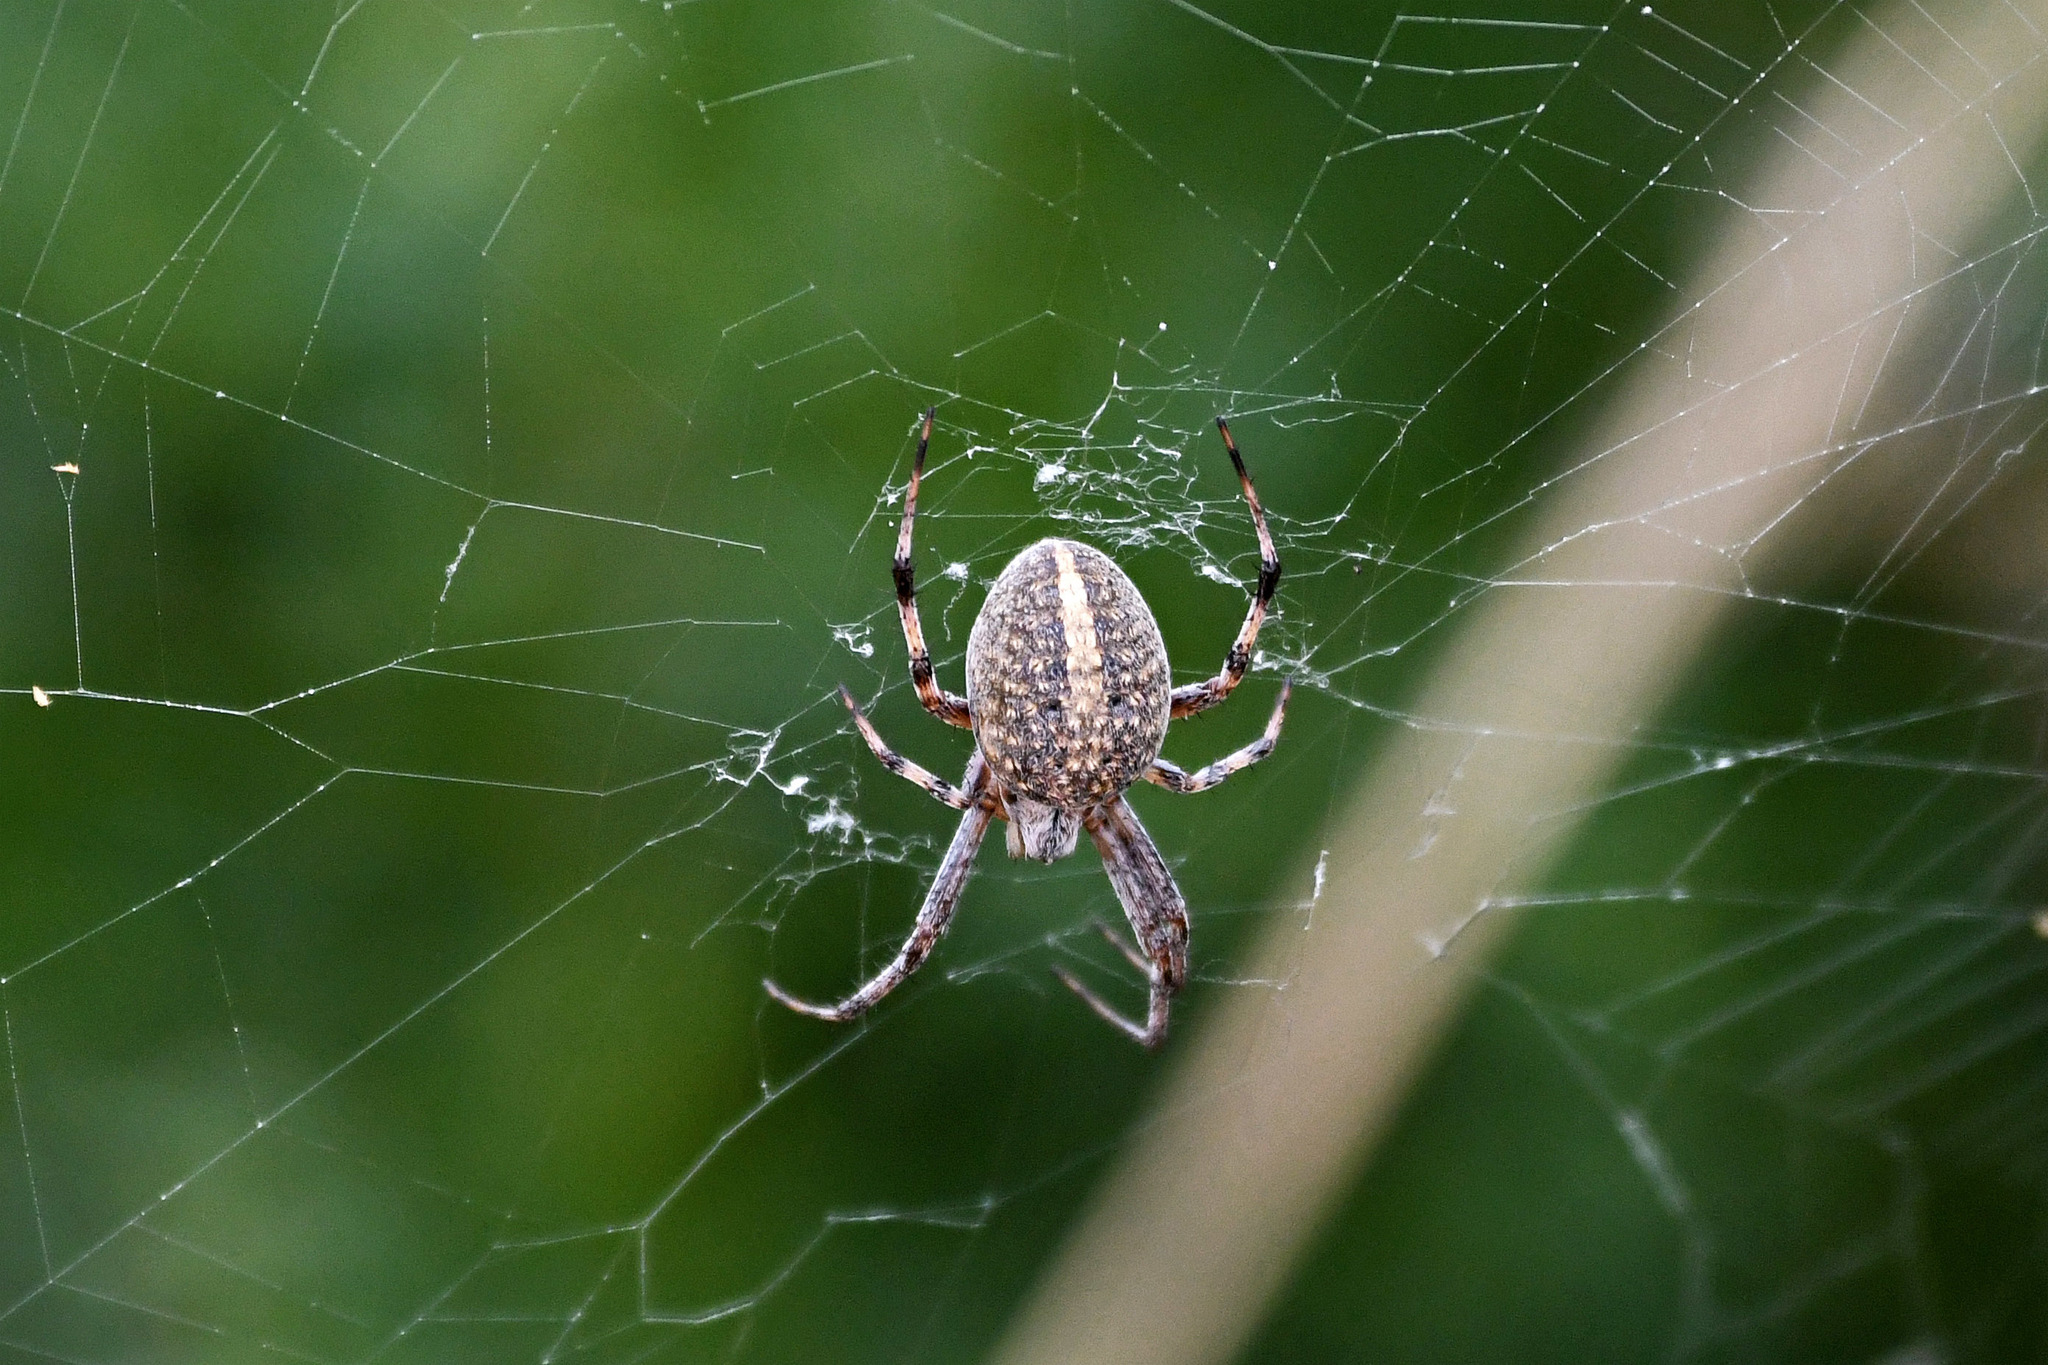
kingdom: Animalia
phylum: Arthropoda
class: Arachnida
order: Araneae
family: Araneidae
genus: Neoscona
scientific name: Neoscona oaxacensis
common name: Orb weavers
